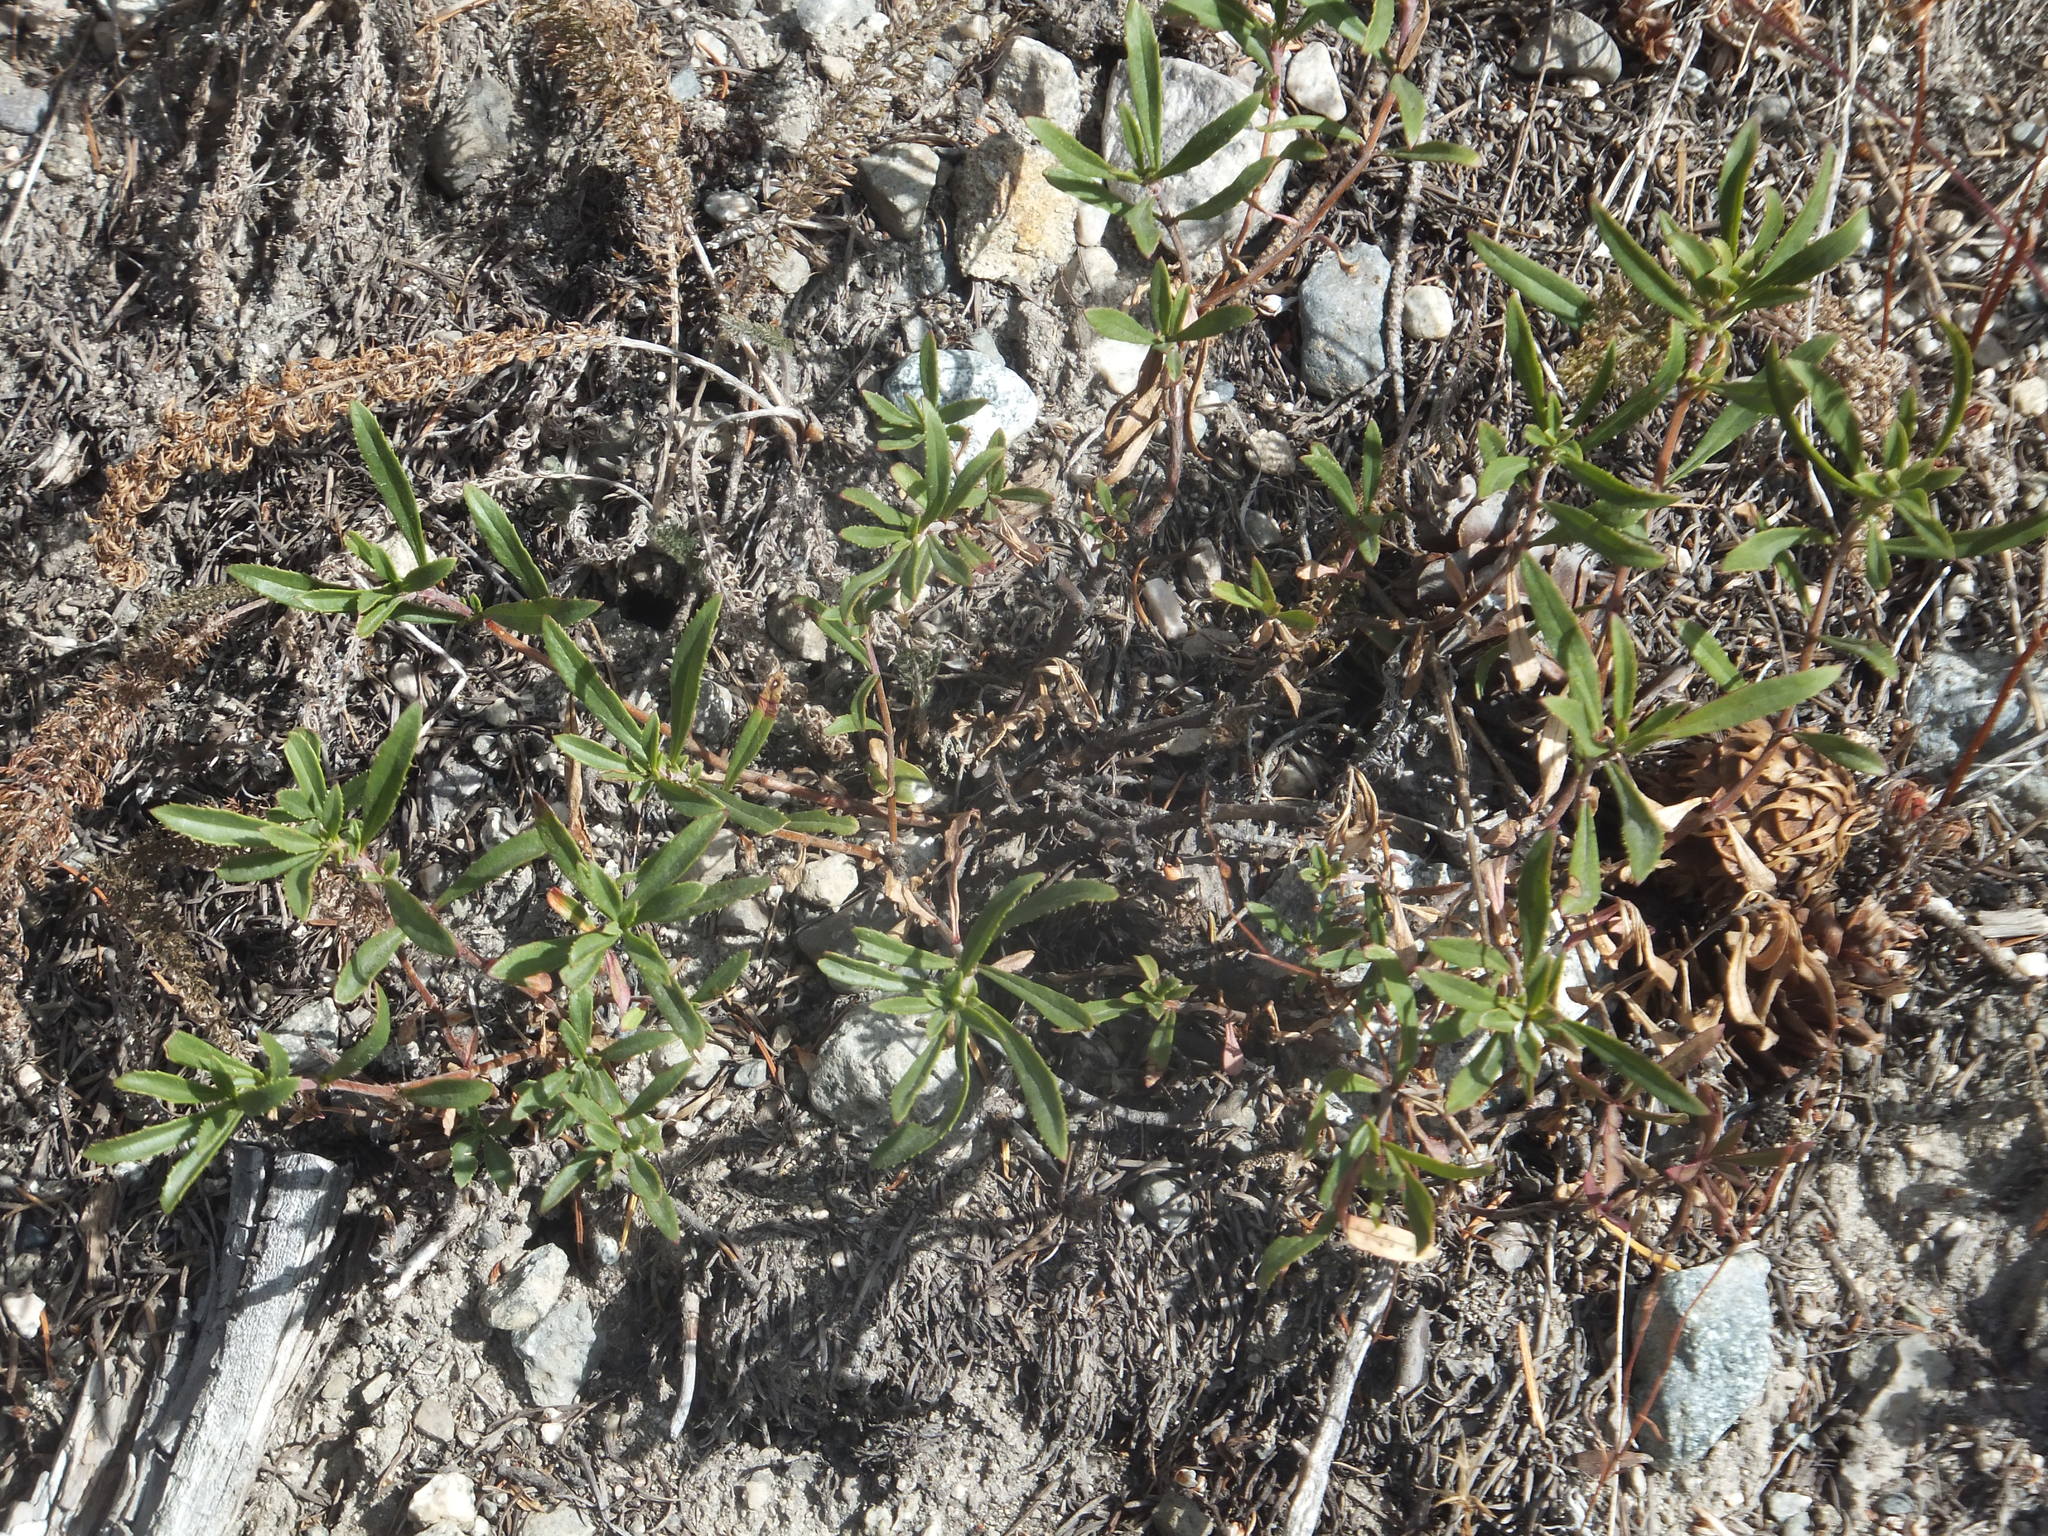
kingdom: Plantae
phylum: Tracheophyta
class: Magnoliopsida
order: Lamiales
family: Plantaginaceae
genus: Penstemon
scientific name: Penstemon fruticosus
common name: Bush penstemon
